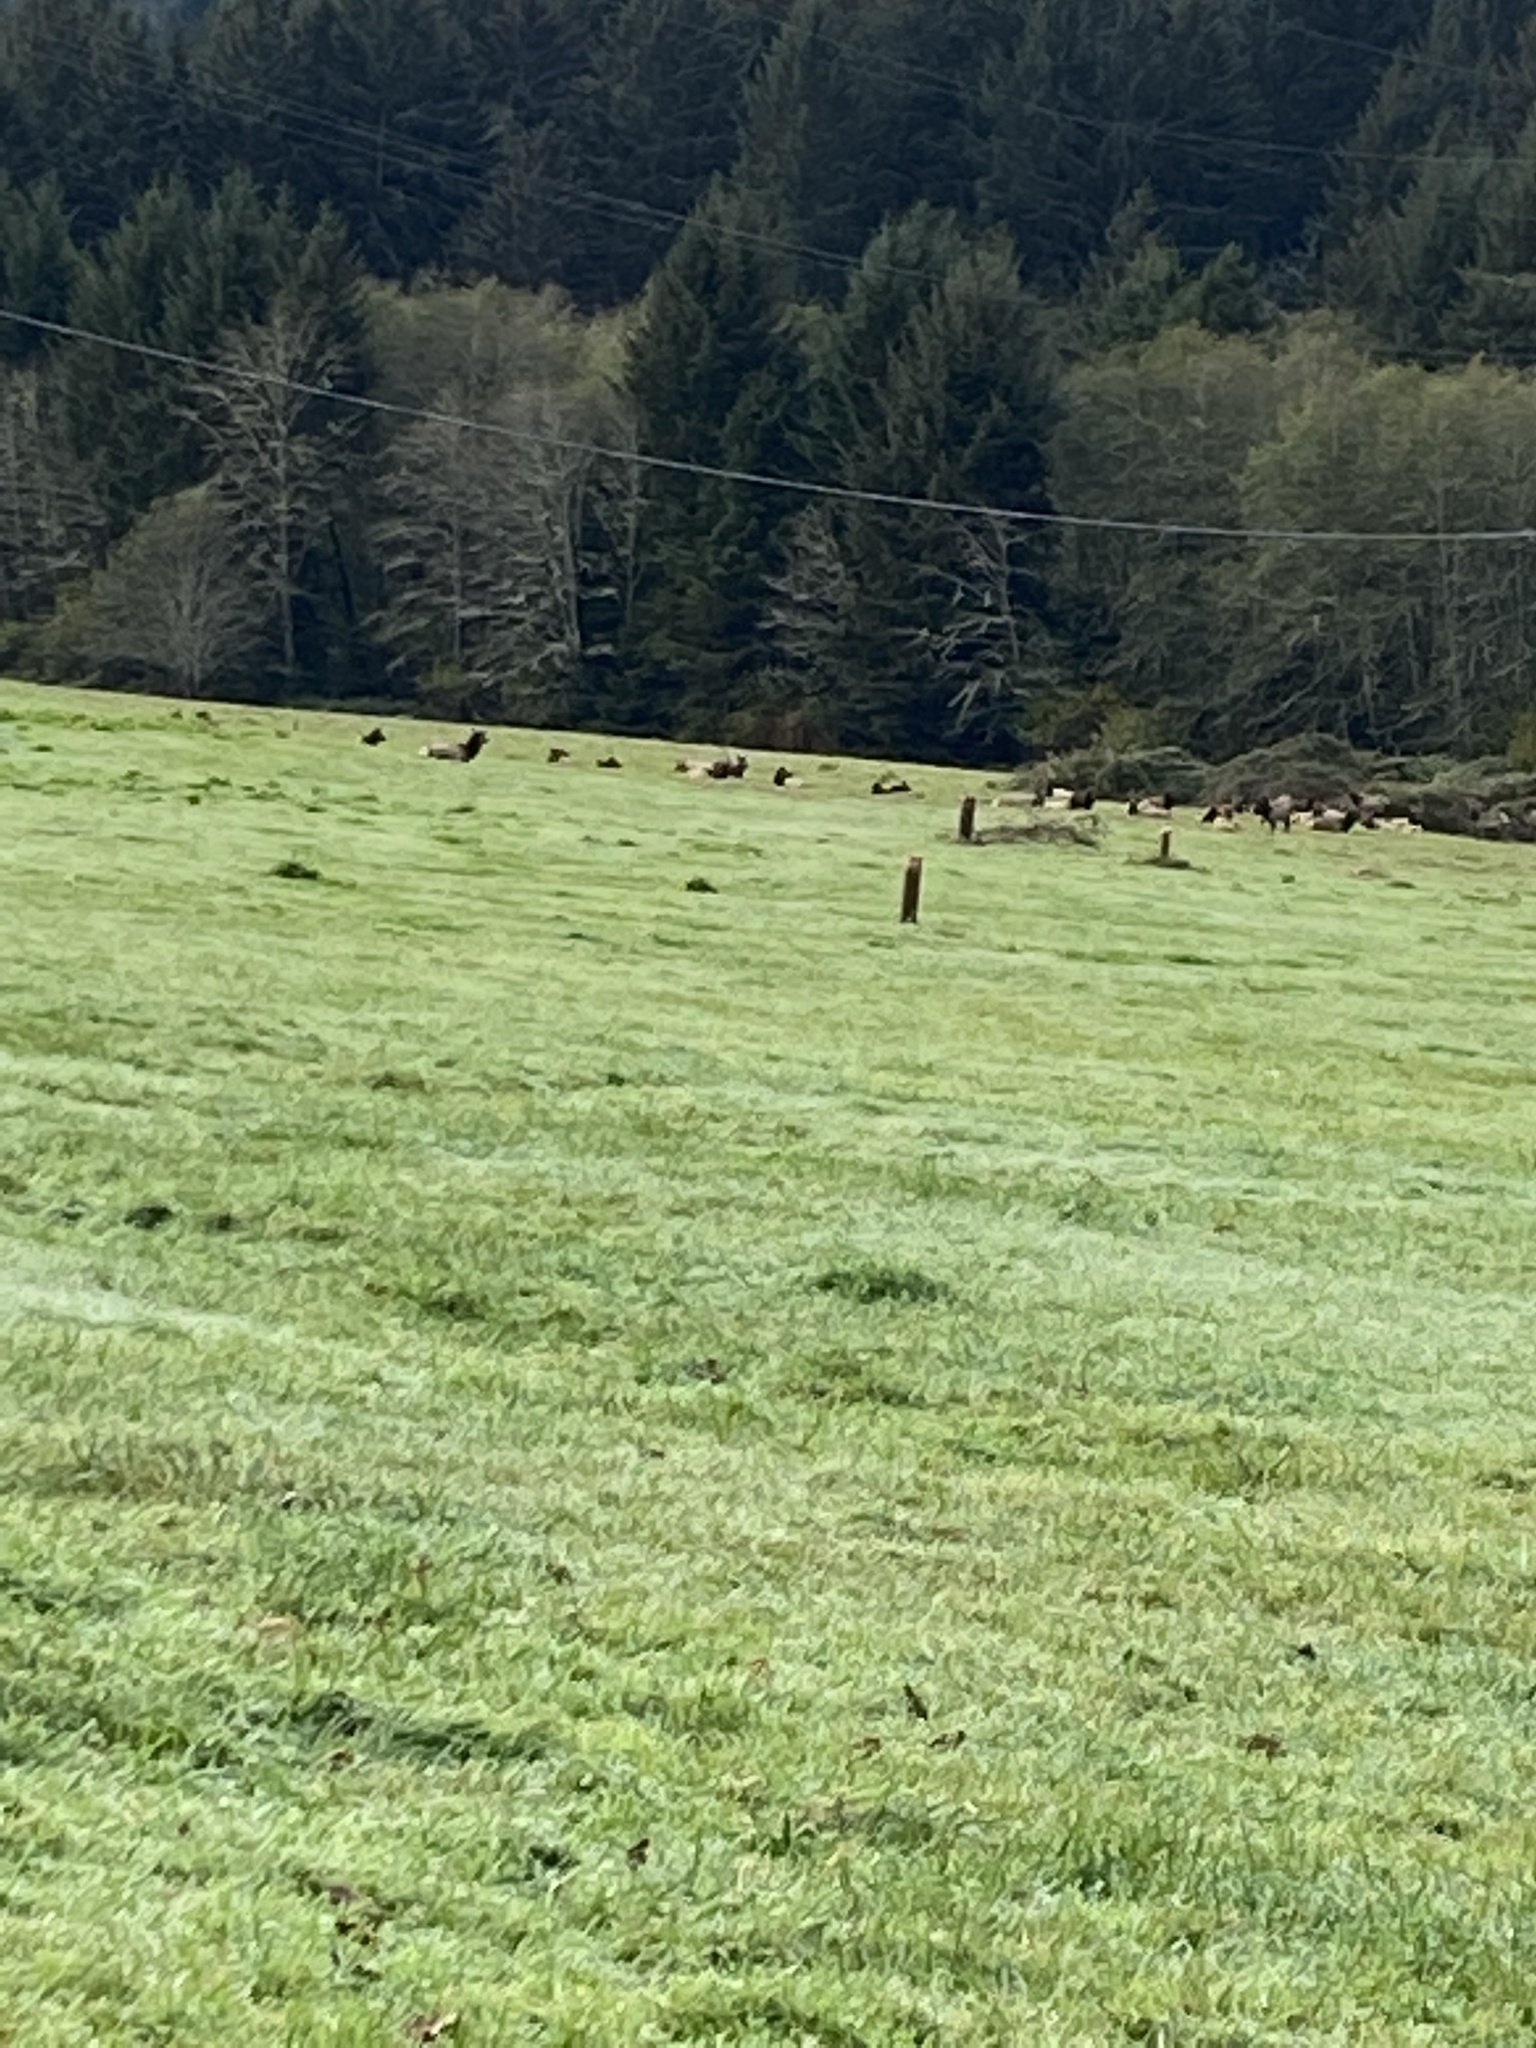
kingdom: Animalia
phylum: Chordata
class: Mammalia
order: Artiodactyla
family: Cervidae
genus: Cervus
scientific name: Cervus elaphus
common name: Red deer
